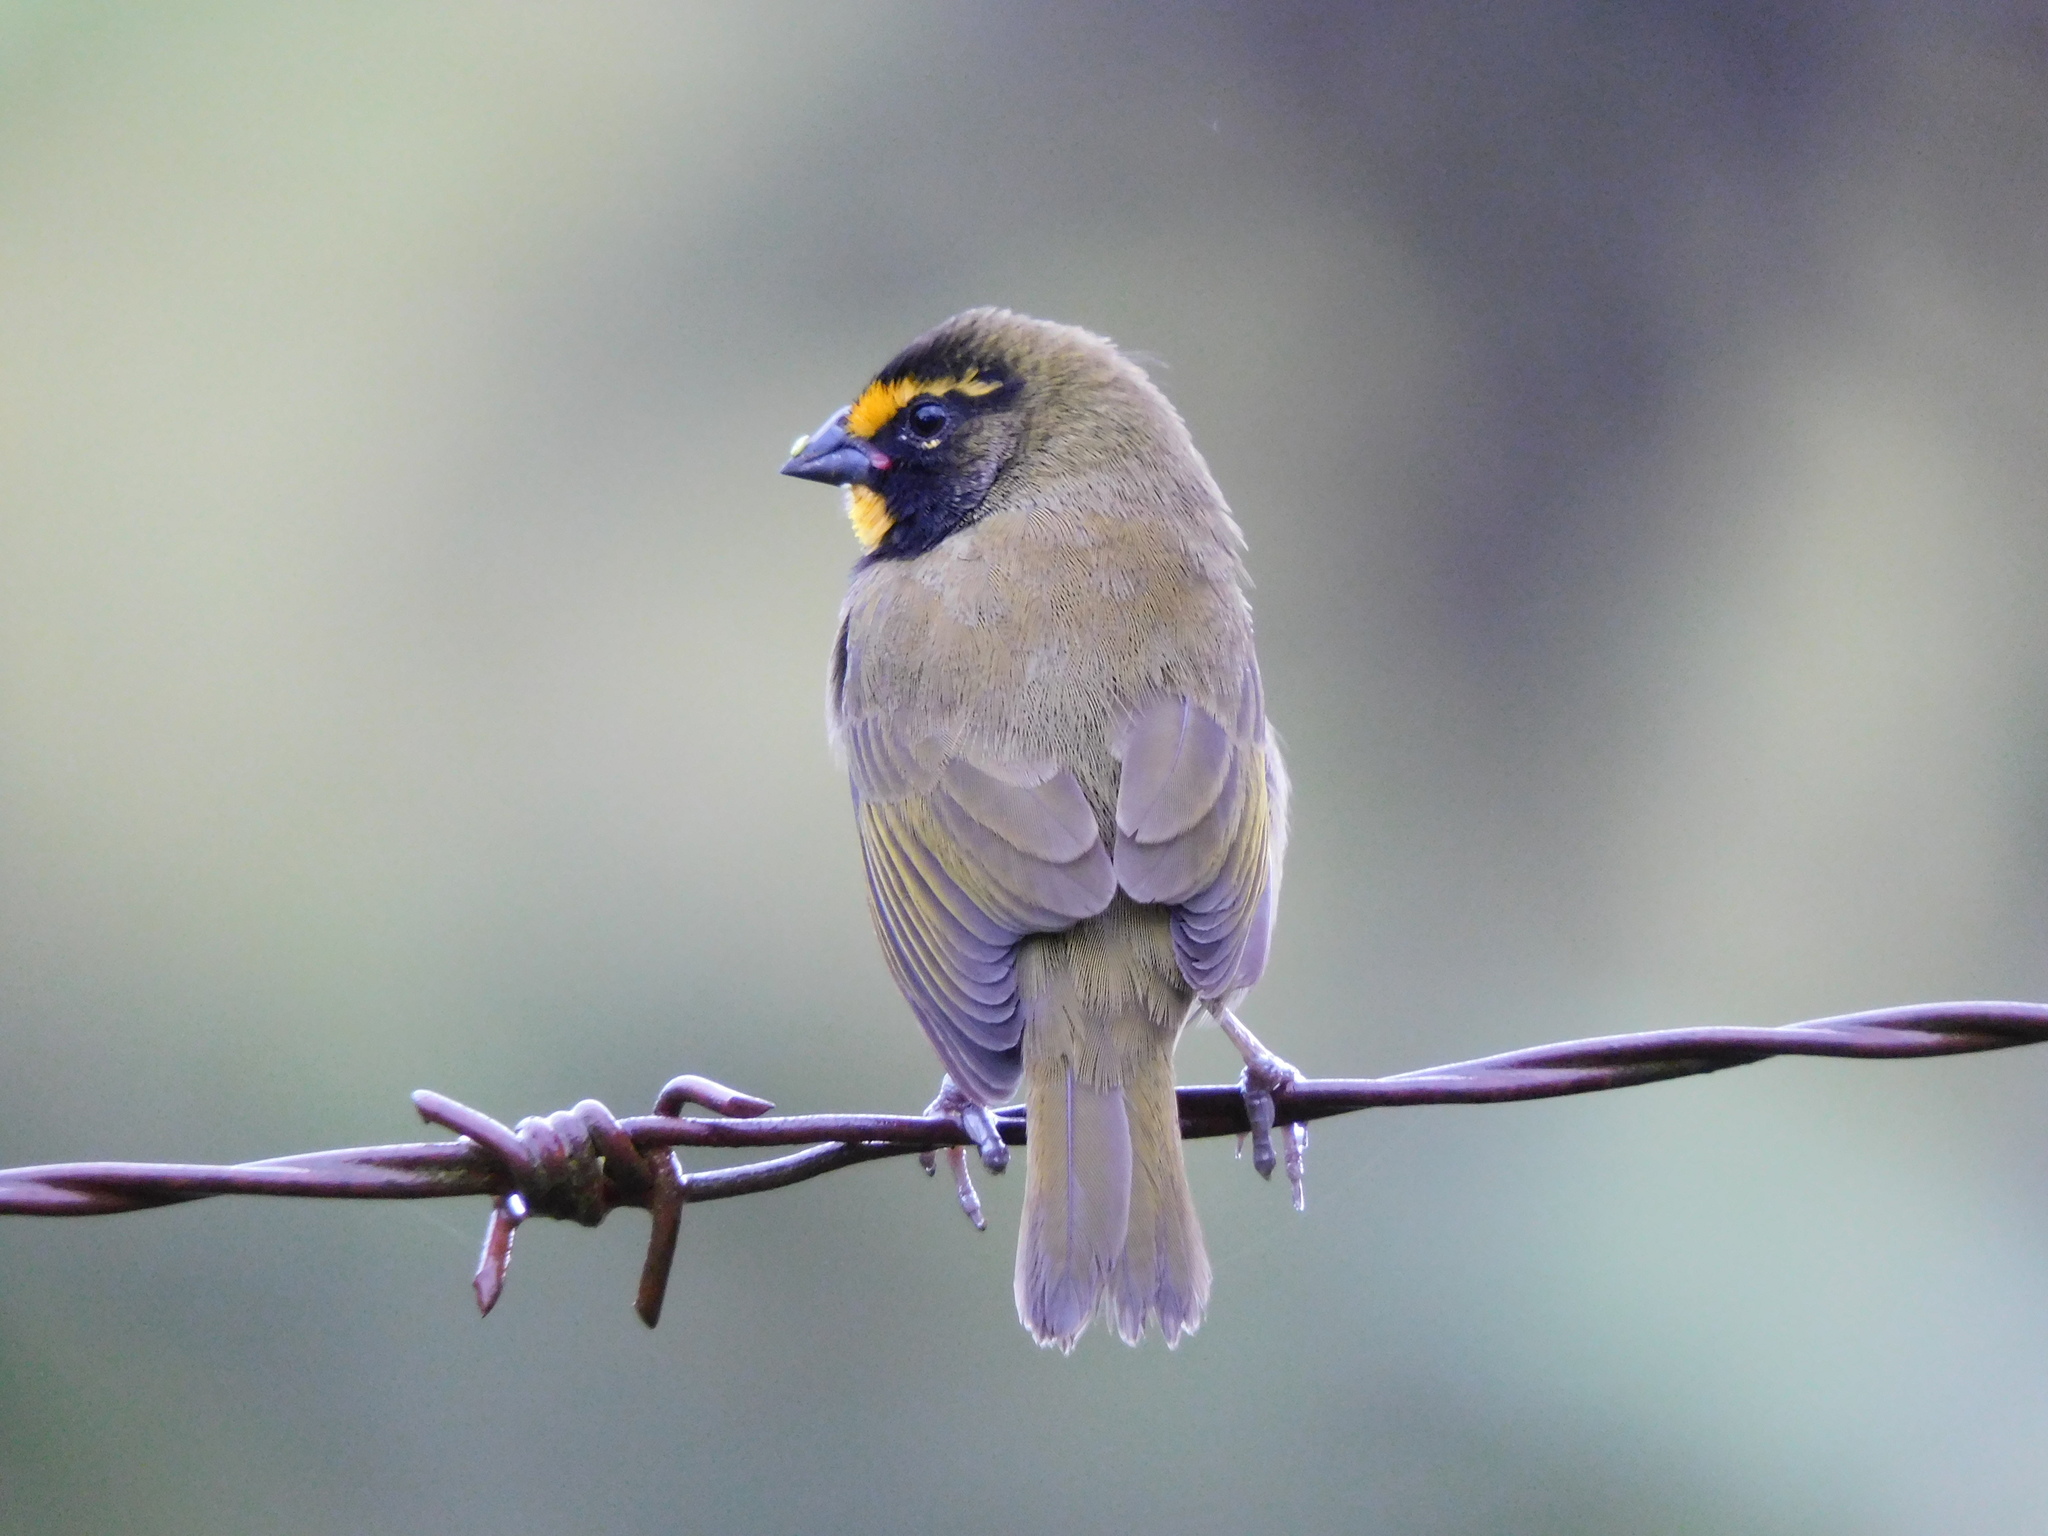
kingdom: Animalia
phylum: Chordata
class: Aves
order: Passeriformes
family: Thraupidae
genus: Tiaris
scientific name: Tiaris olivaceus
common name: Yellow-faced grassquit
